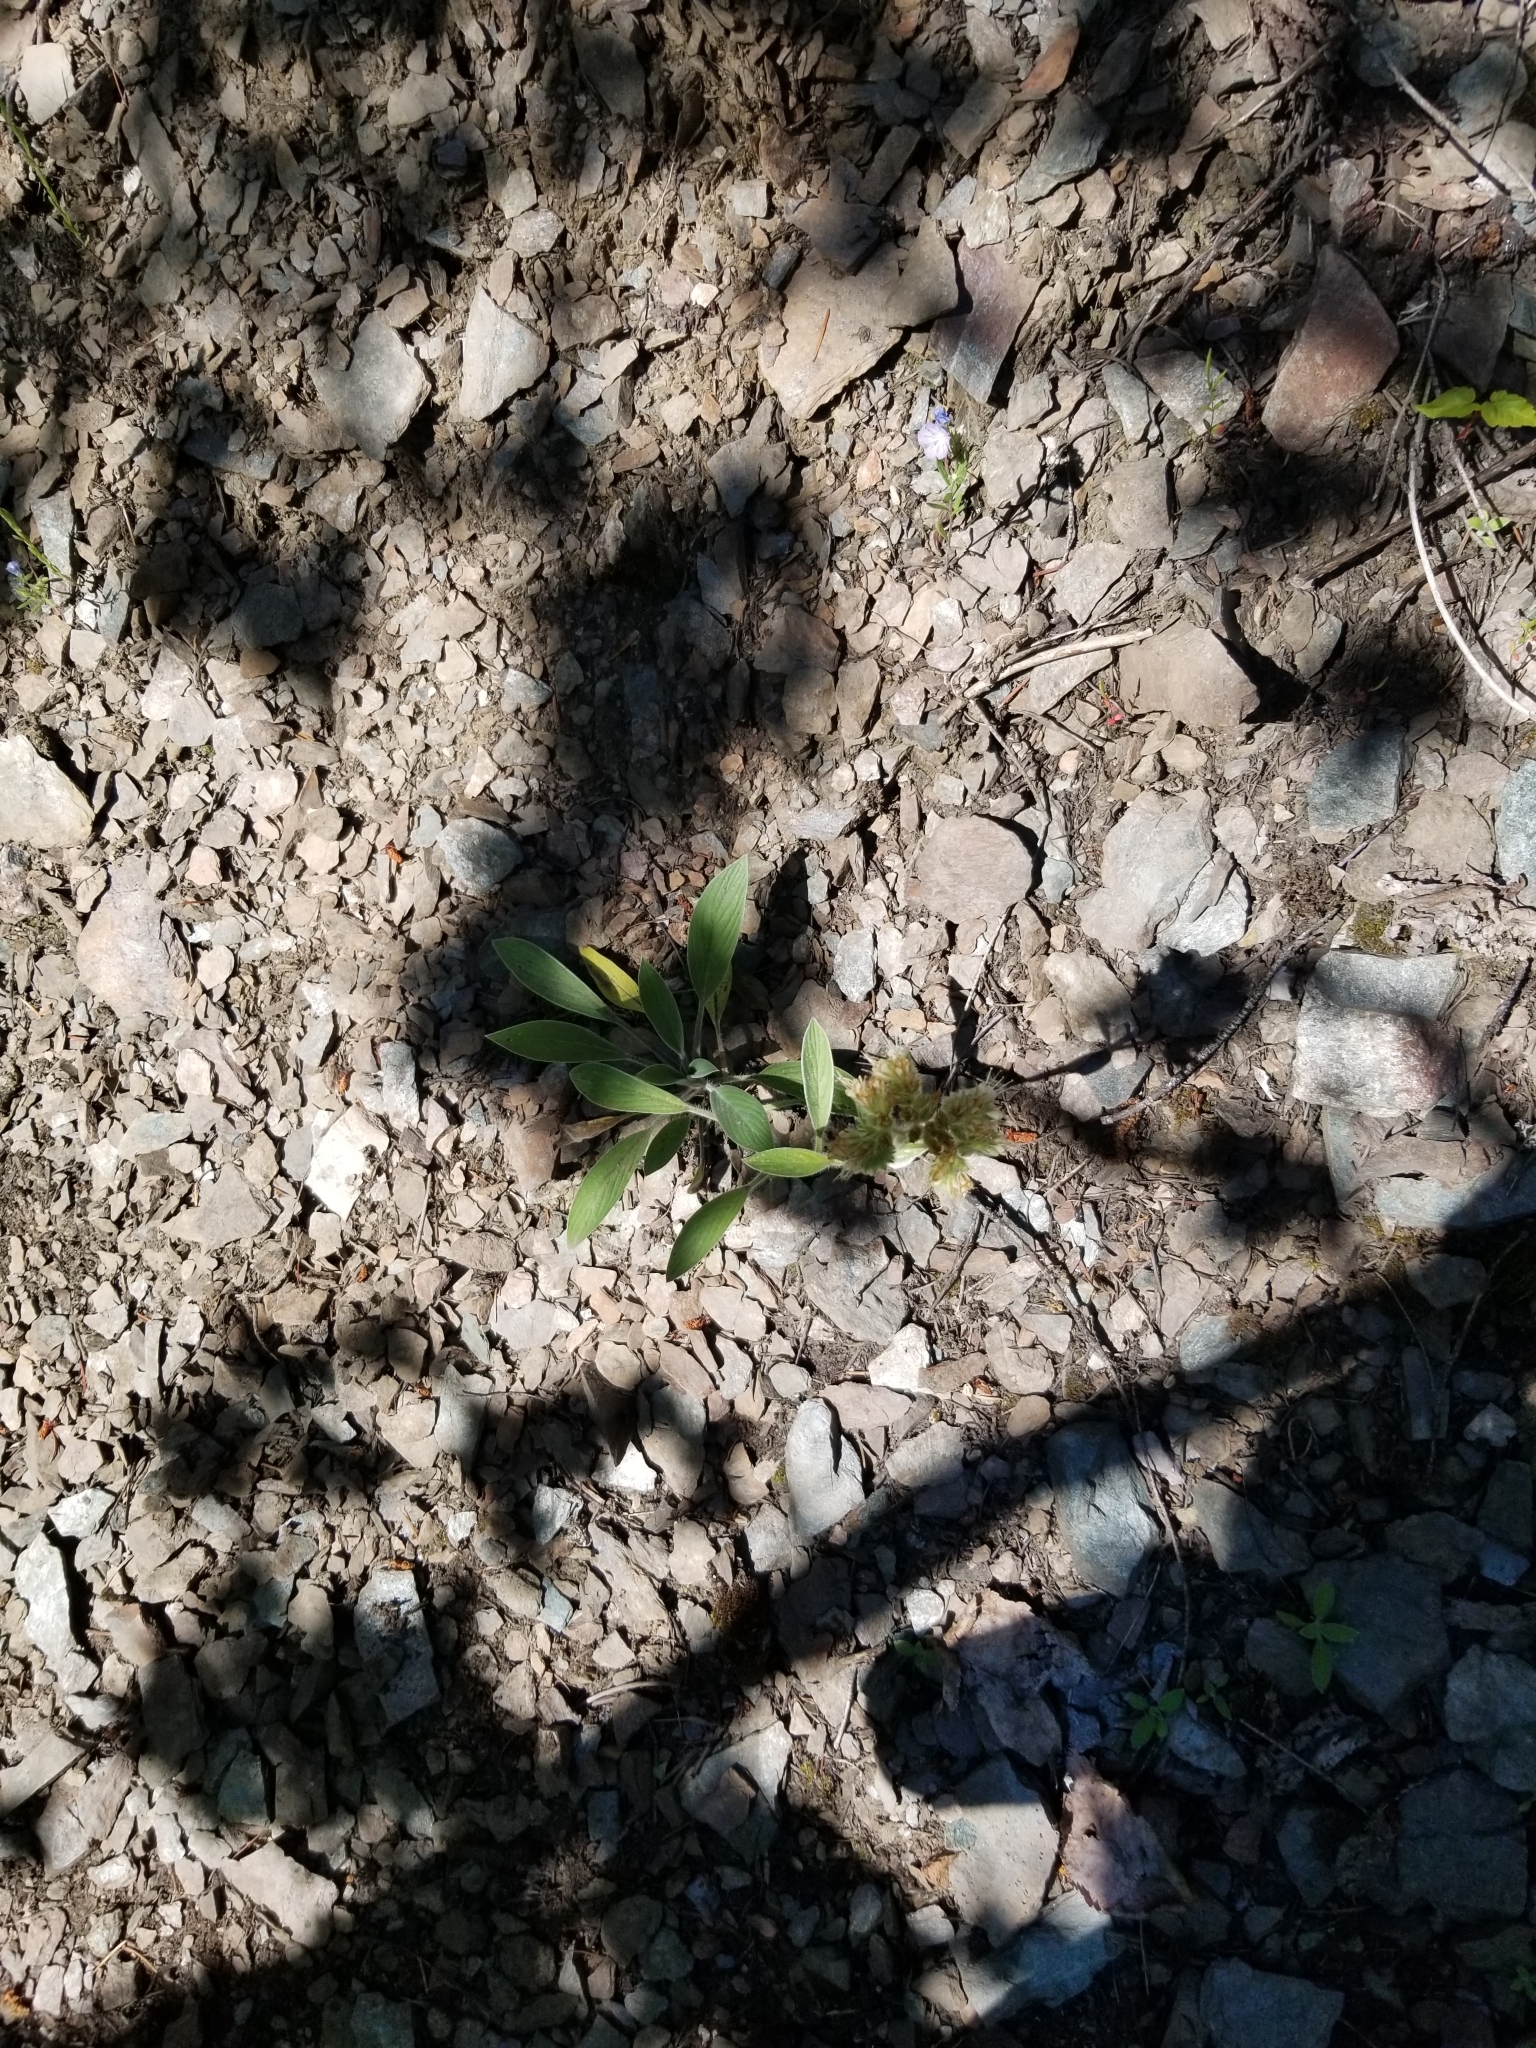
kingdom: Plantae
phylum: Tracheophyta
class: Magnoliopsida
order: Boraginales
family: Hydrophyllaceae
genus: Phacelia
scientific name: Phacelia hastata
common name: Silver-leaved phacelia
